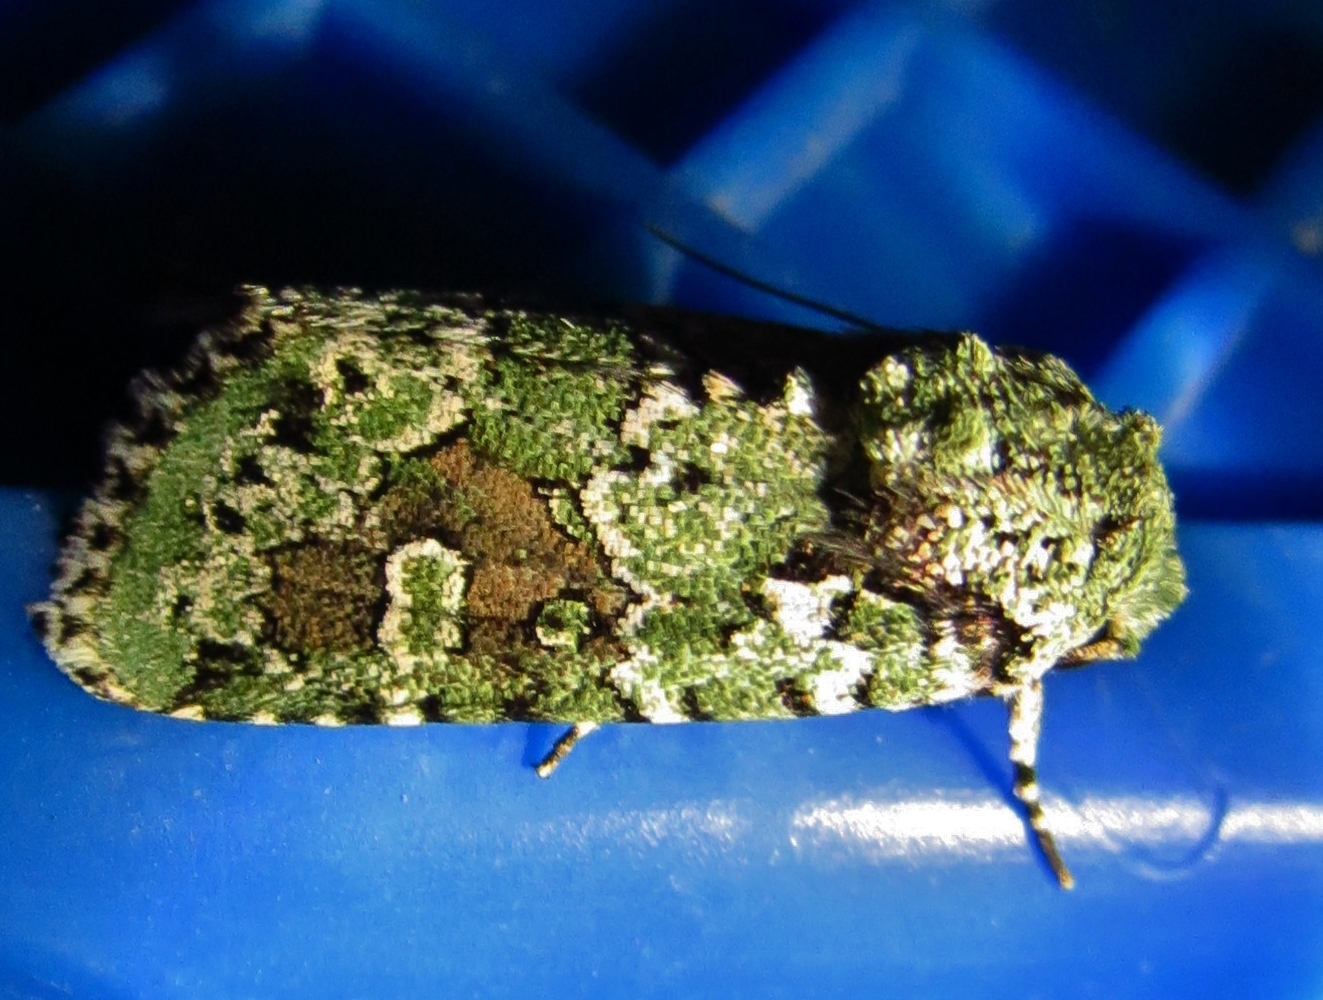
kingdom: Animalia
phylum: Arthropoda
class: Insecta
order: Lepidoptera
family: Noctuidae
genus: Lacinipolia
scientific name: Lacinipolia laudabilis
